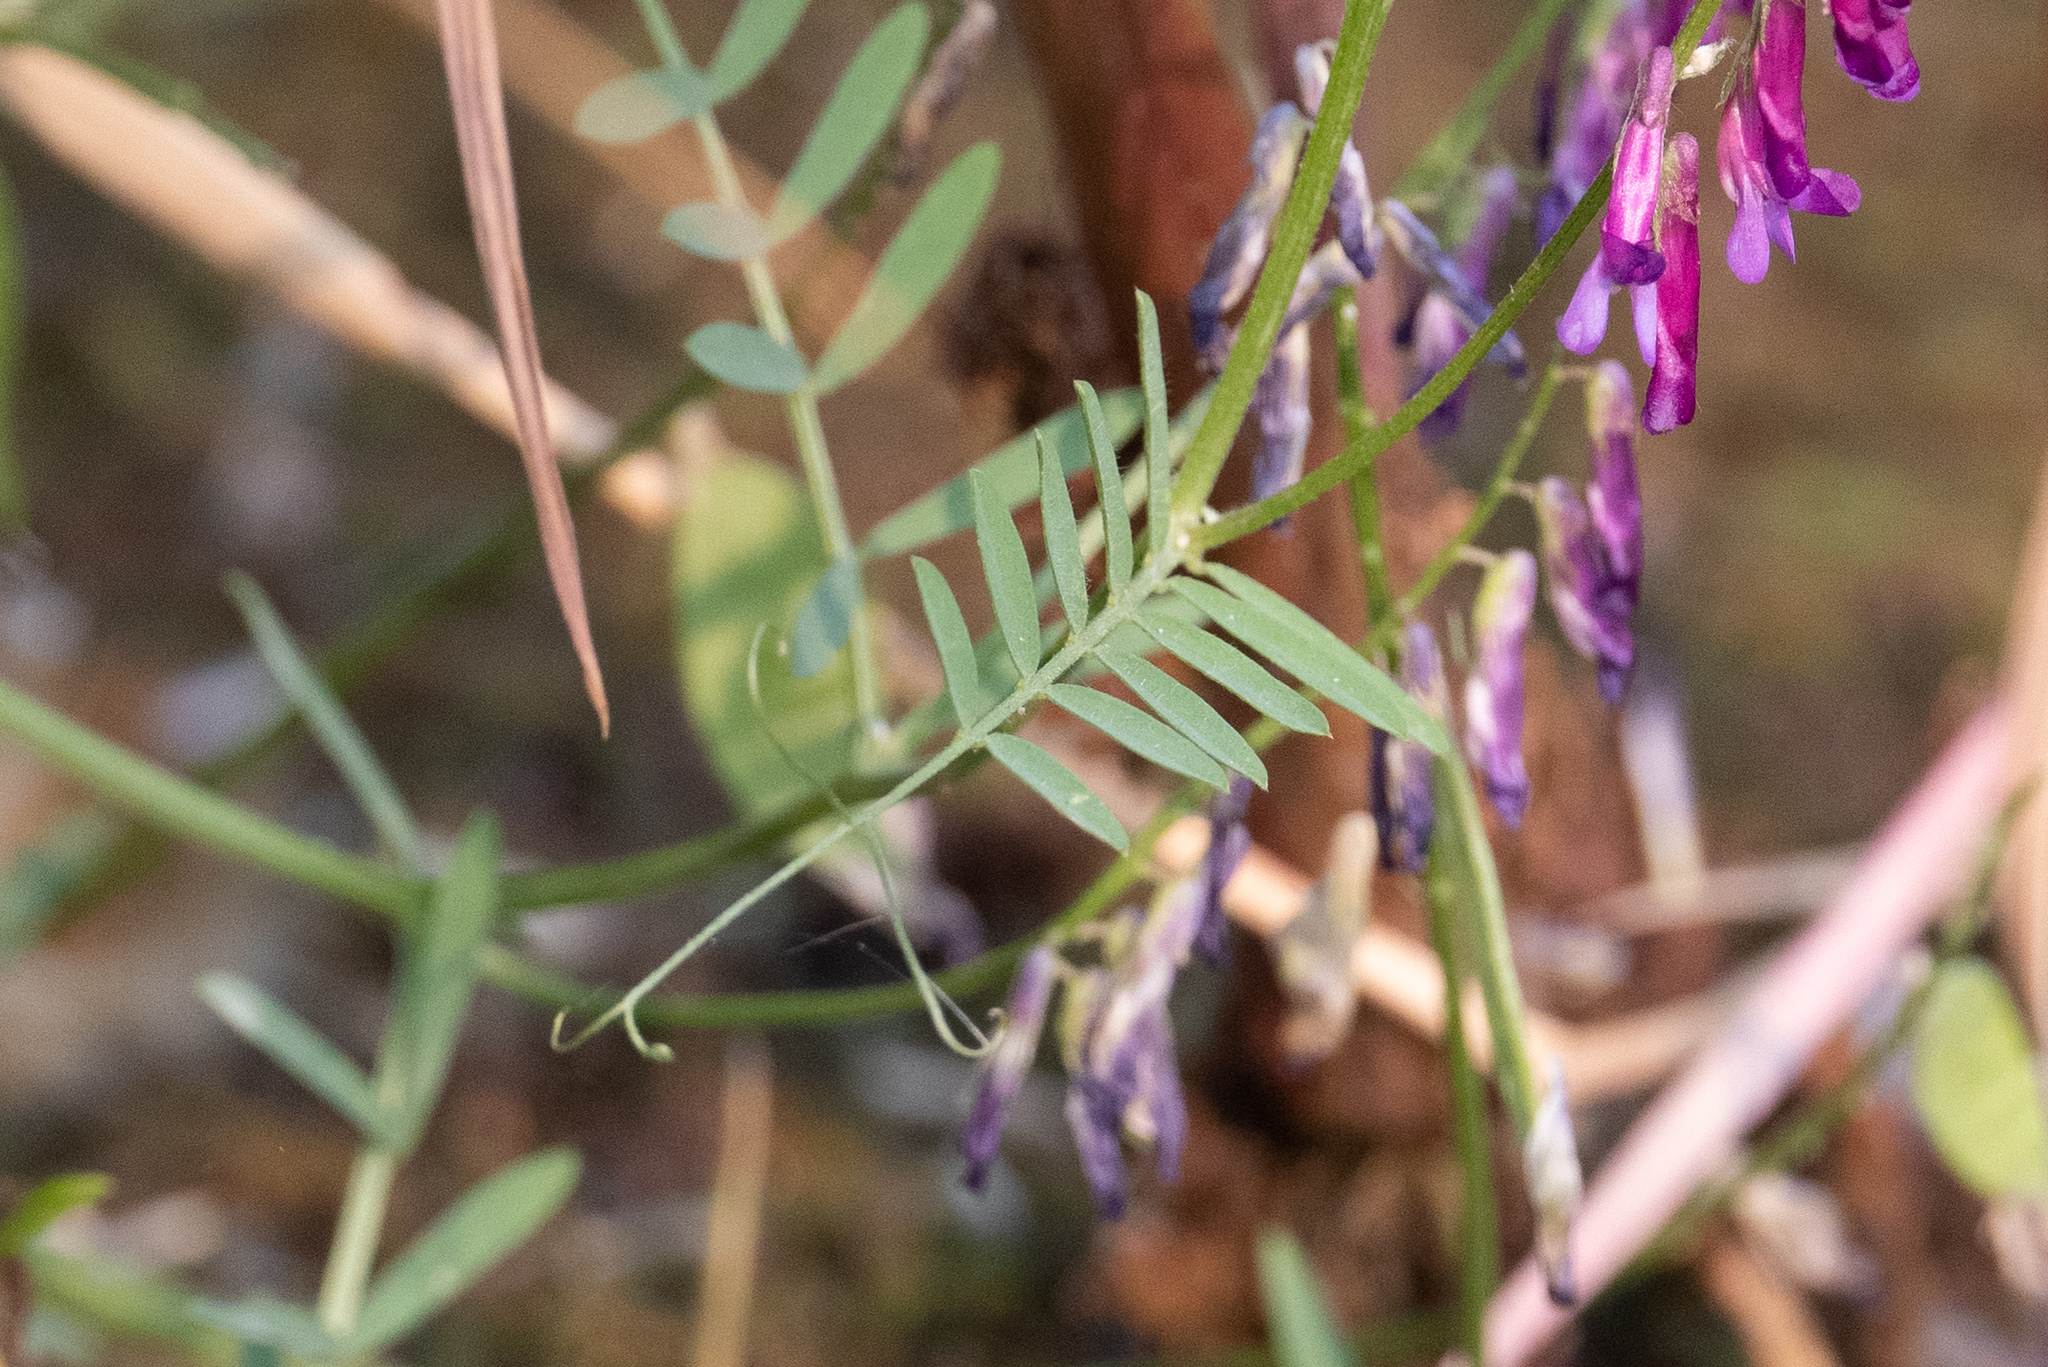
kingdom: Plantae
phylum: Tracheophyta
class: Magnoliopsida
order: Fabales
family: Fabaceae
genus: Vicia
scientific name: Vicia villosa
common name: Fodder vetch
